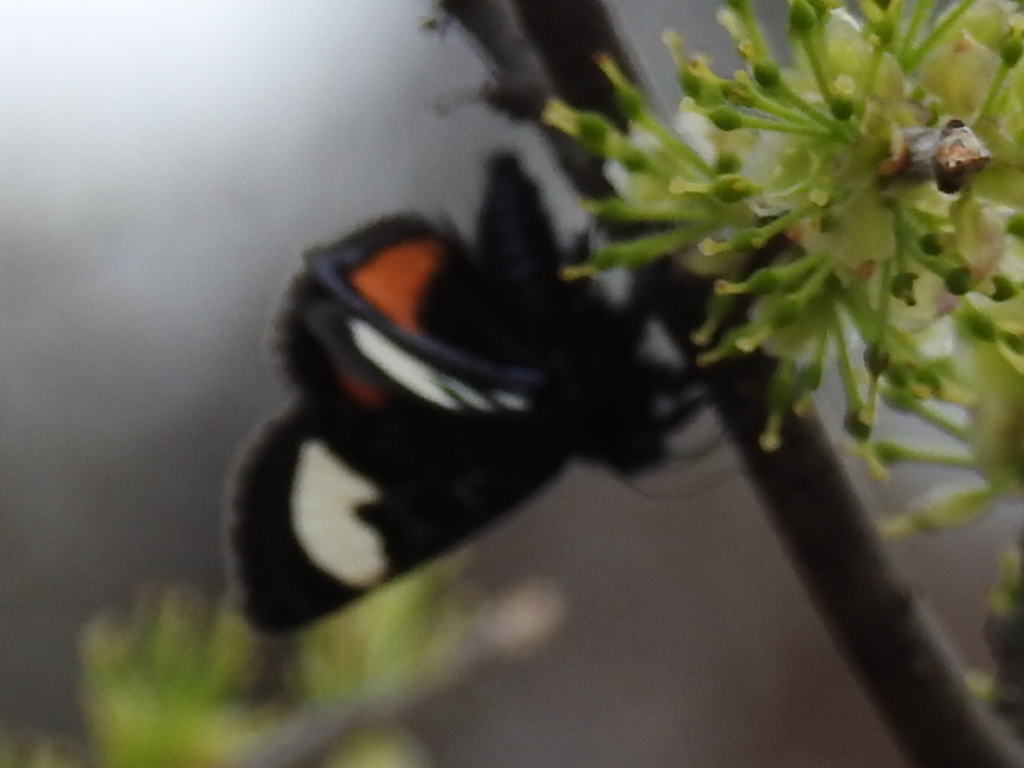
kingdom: Animalia
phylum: Arthropoda
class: Insecta
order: Lepidoptera
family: Noctuidae
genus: Psychomorpha
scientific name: Psychomorpha epimenis
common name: Grapevine epimenis moth
